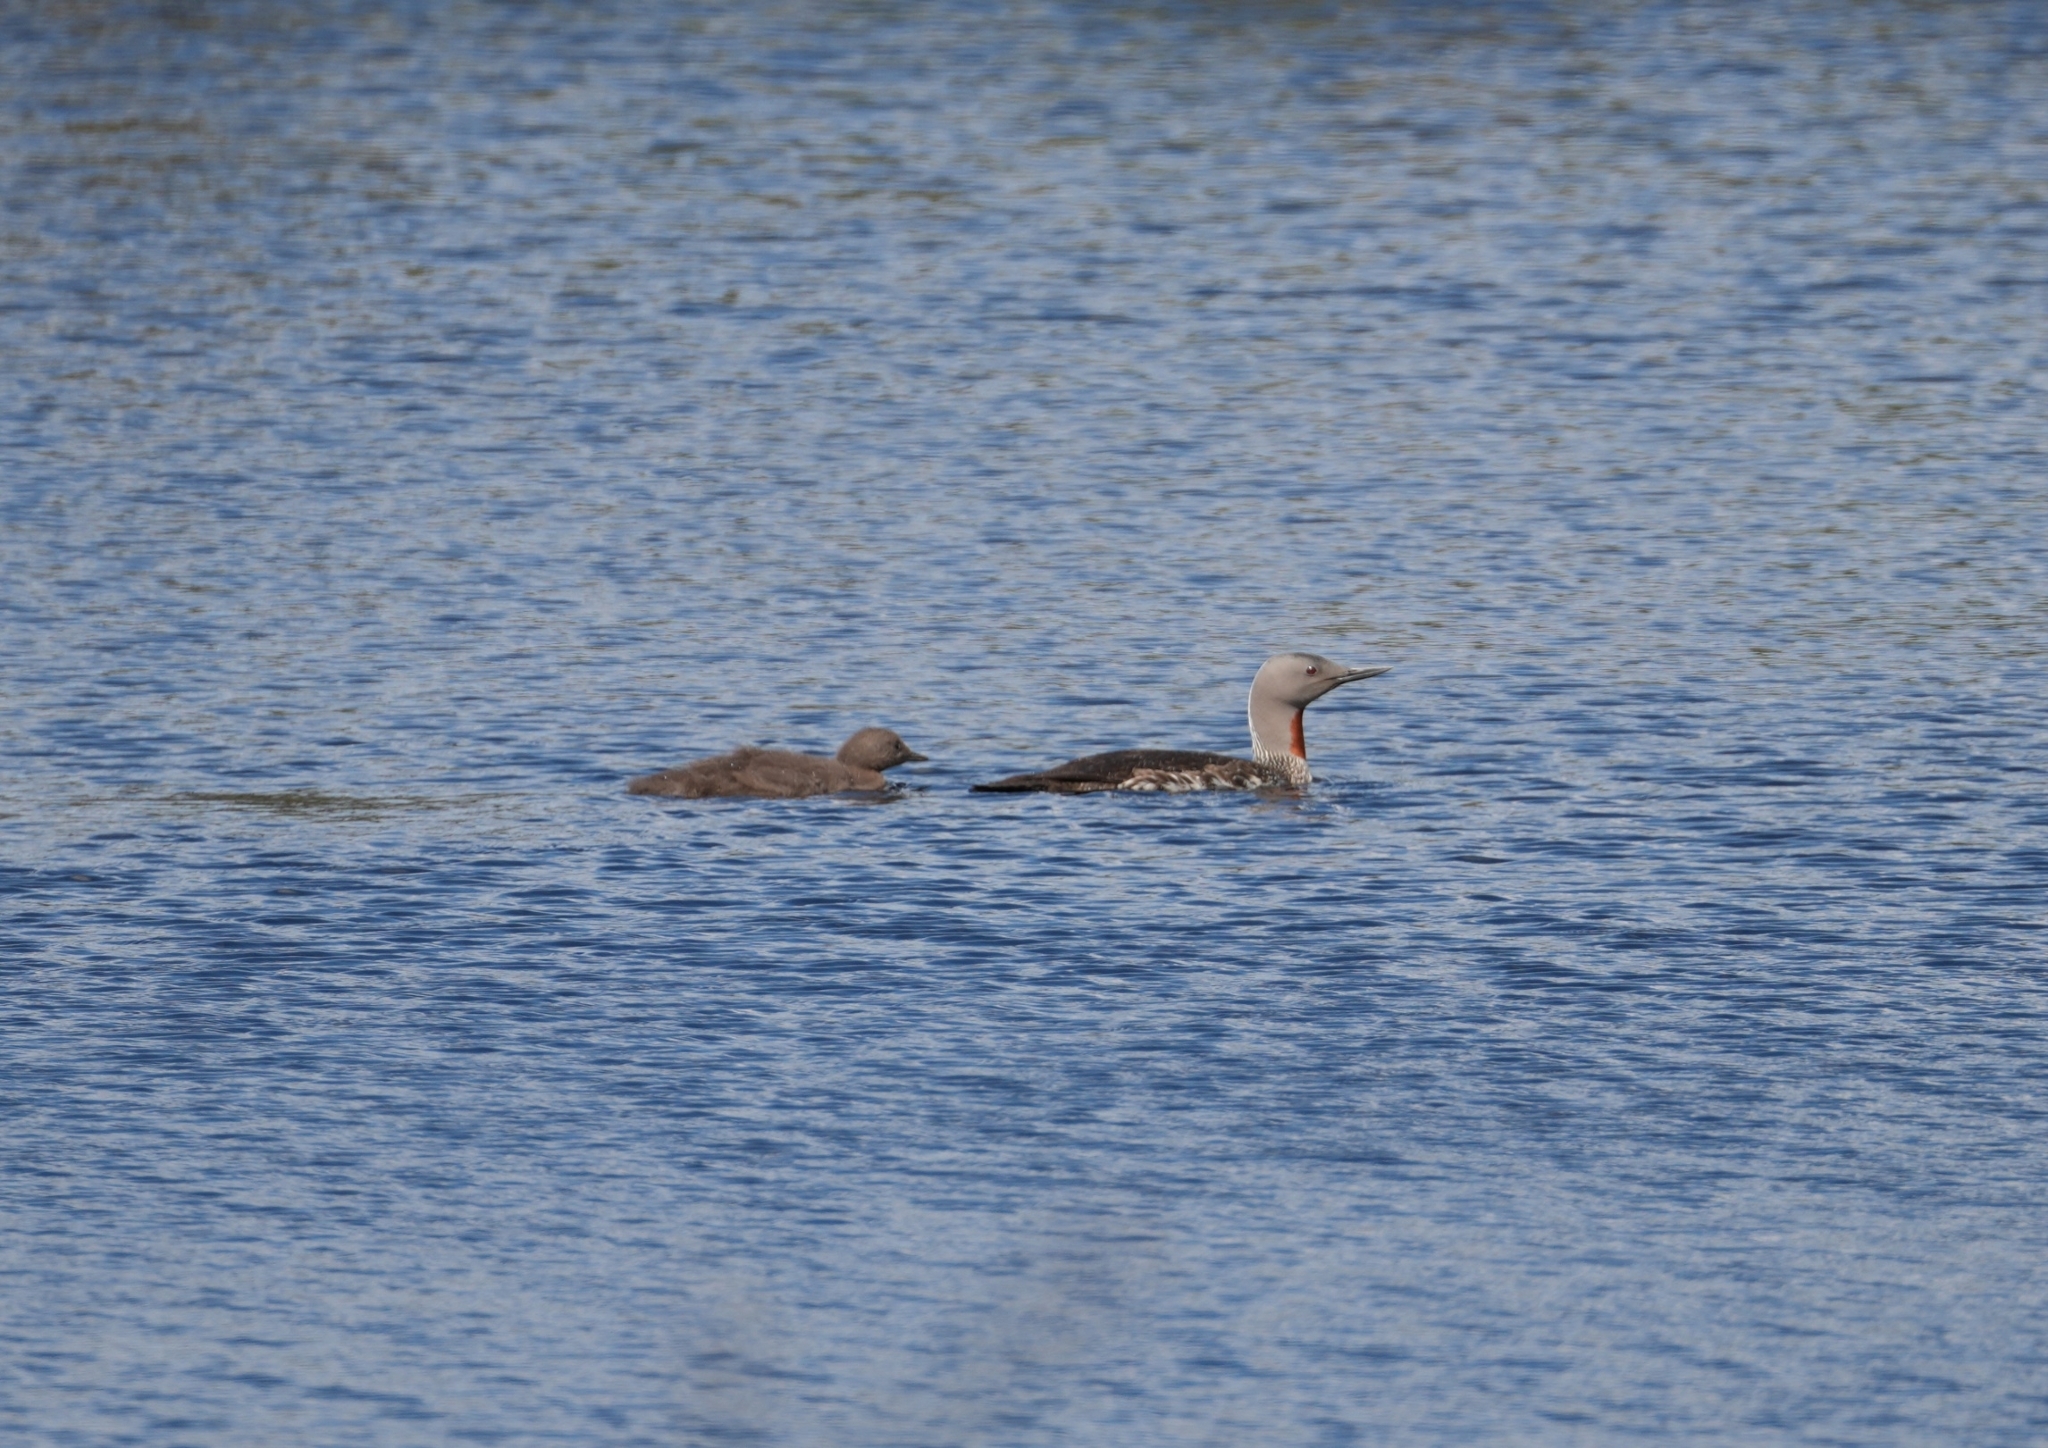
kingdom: Animalia
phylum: Chordata
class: Aves
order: Gaviiformes
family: Gaviidae
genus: Gavia
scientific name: Gavia stellata
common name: Red-throated loon
